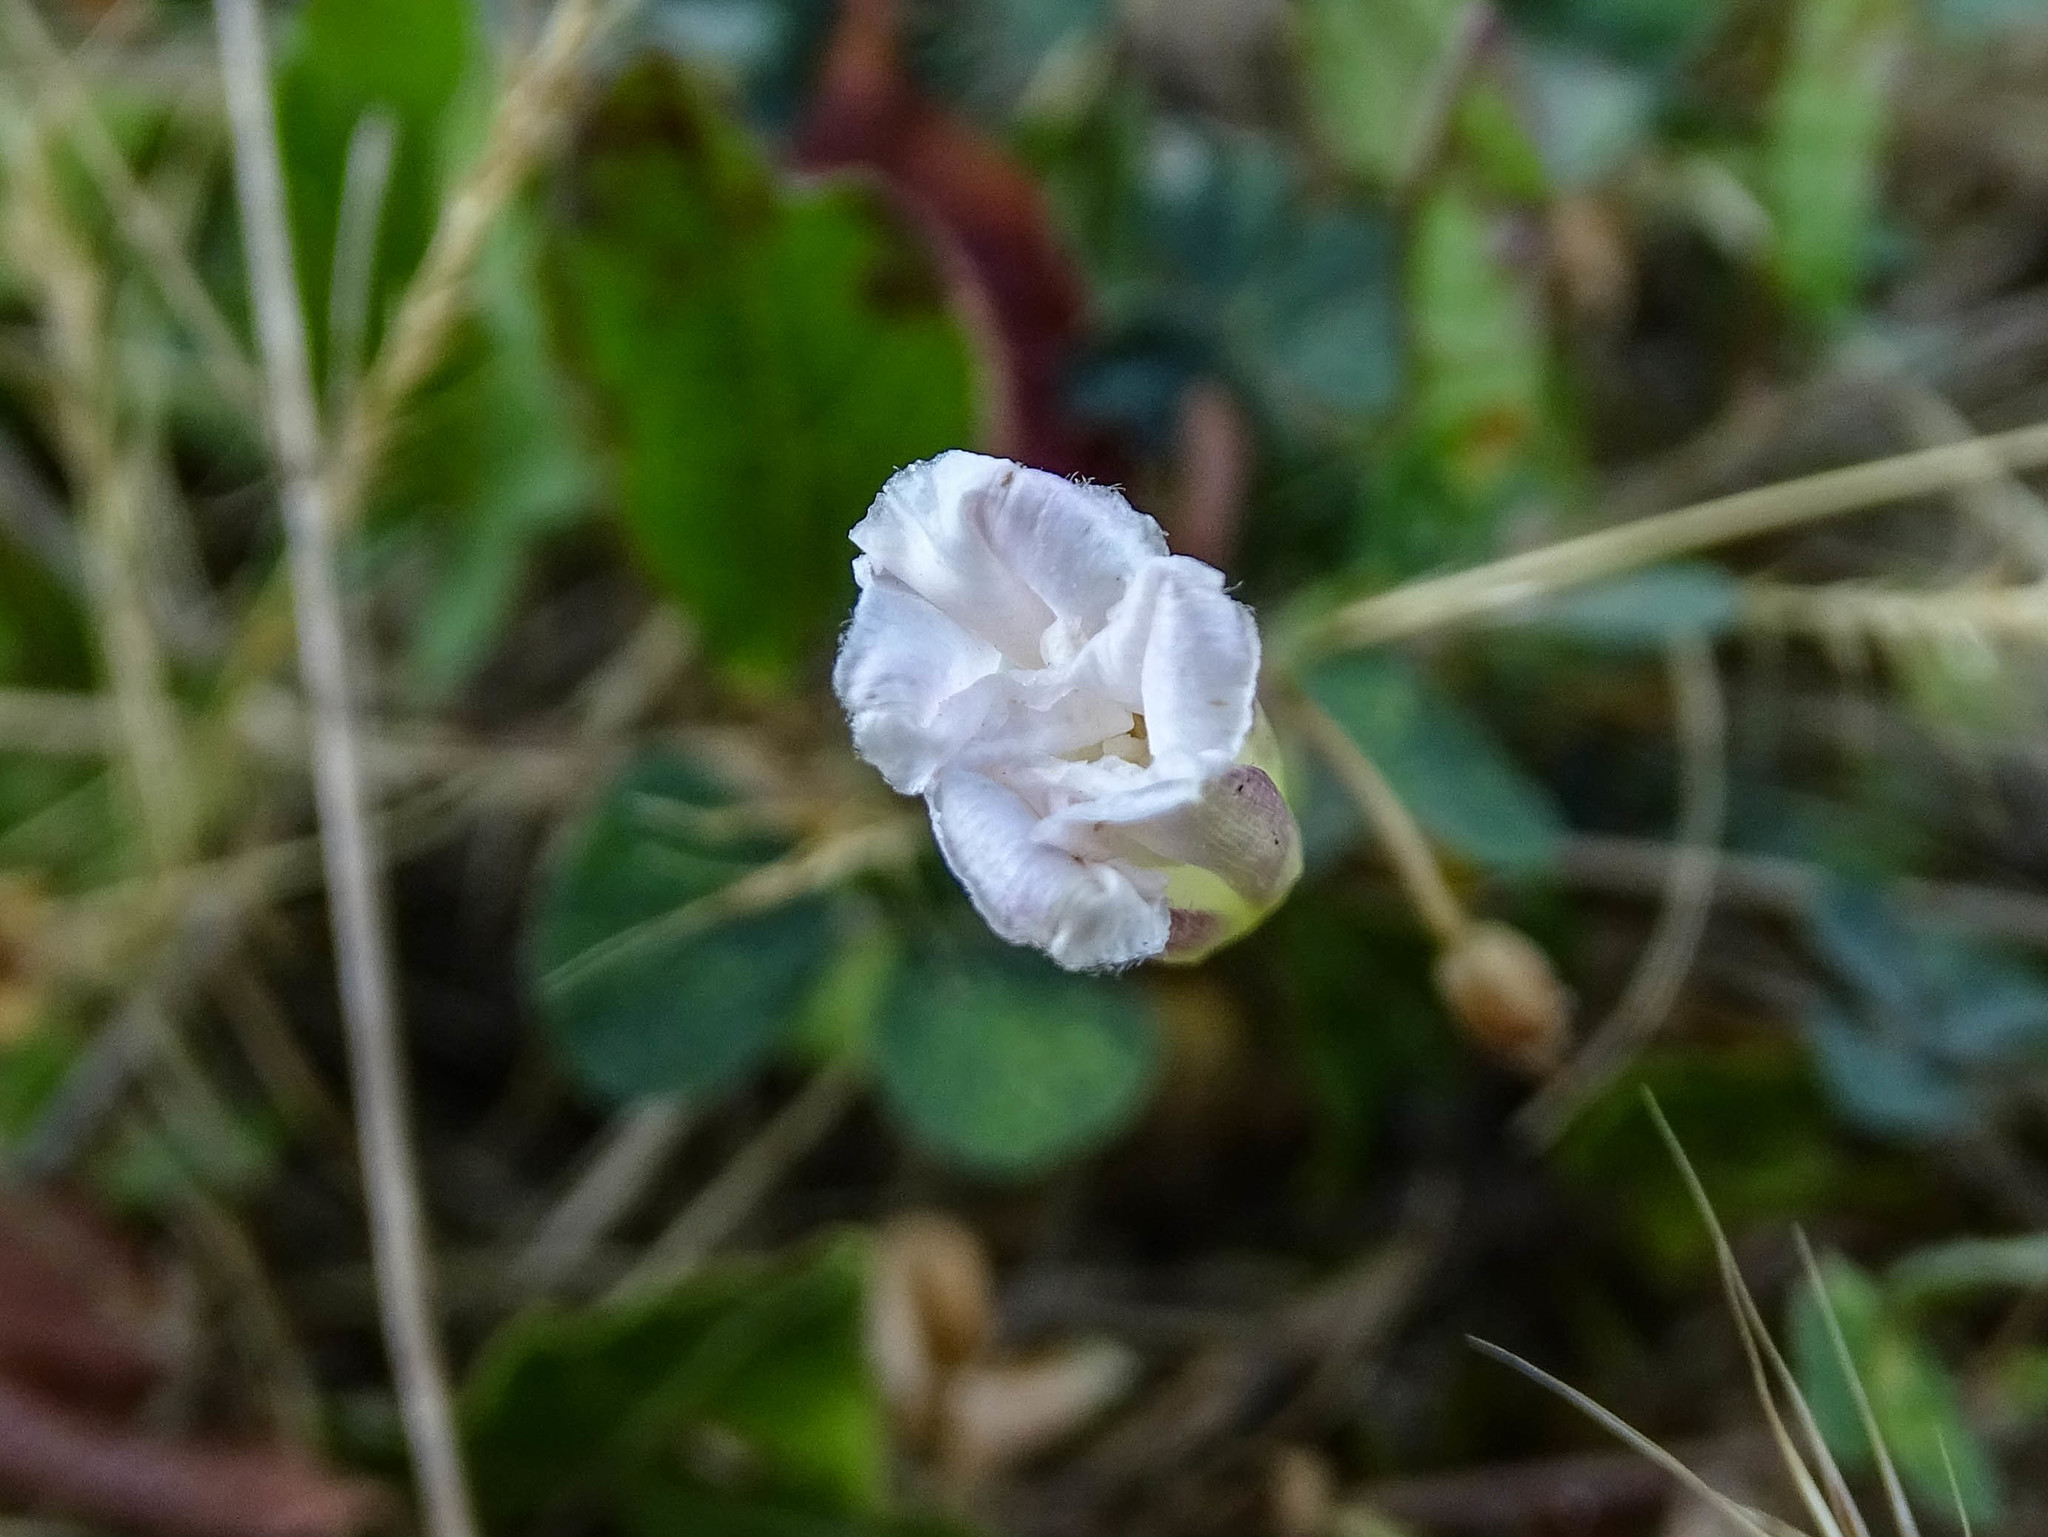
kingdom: Plantae
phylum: Tracheophyta
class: Magnoliopsida
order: Solanales
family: Convolvulaceae
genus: Convolvulus
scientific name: Convolvulus arvensis
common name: Field bindweed
